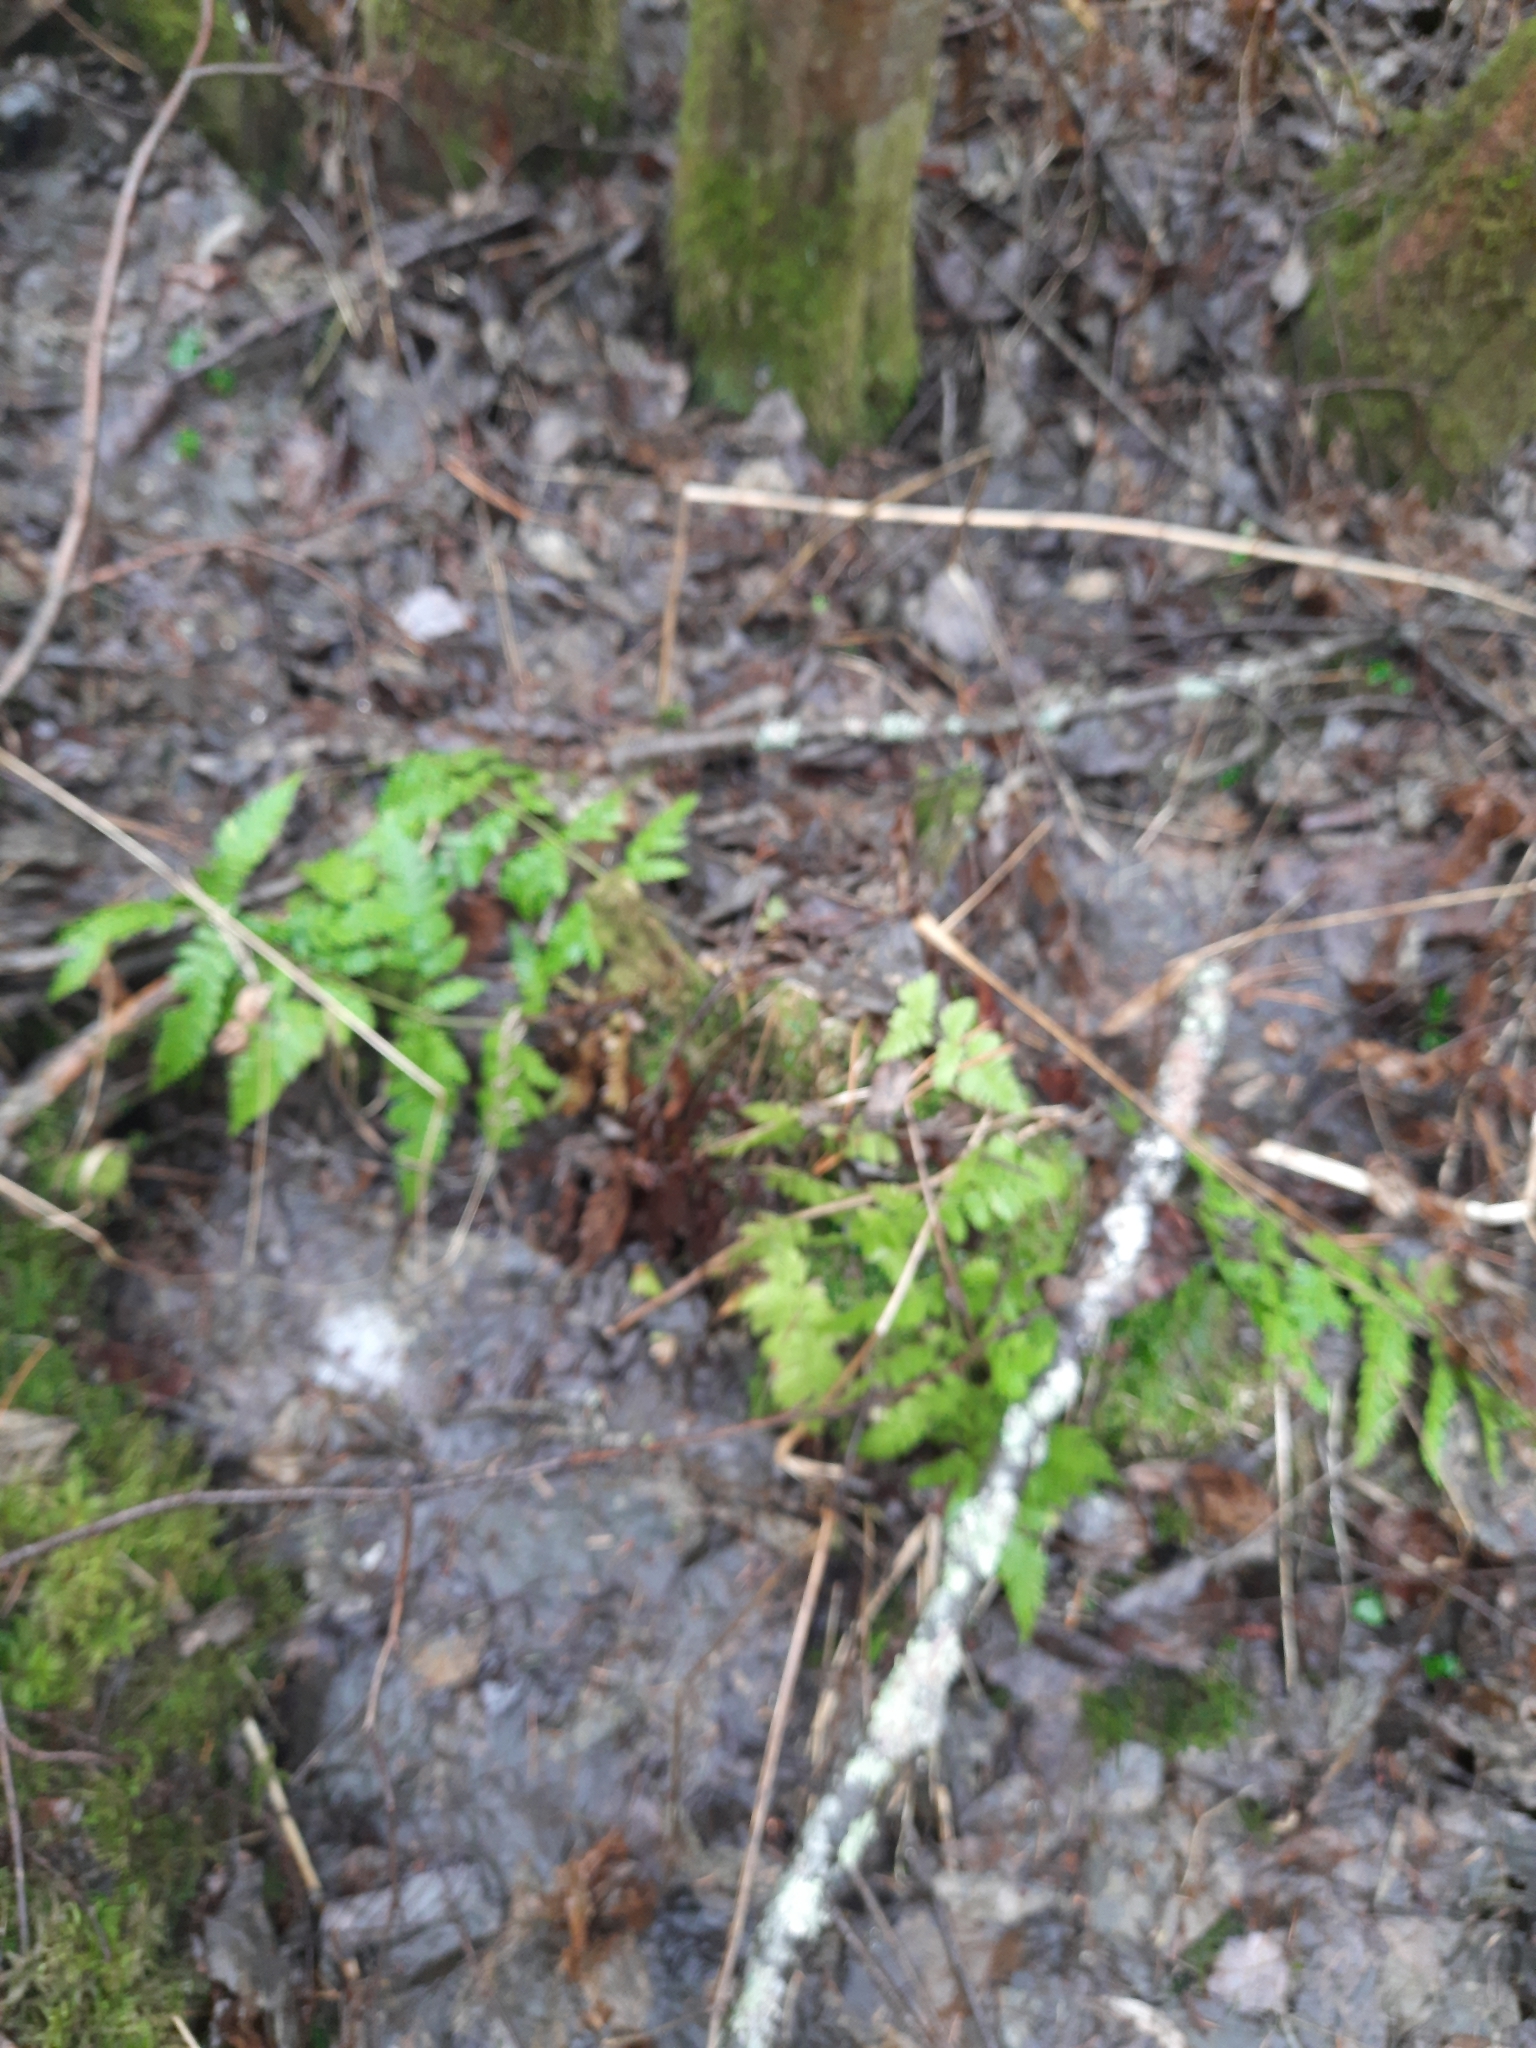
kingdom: Plantae
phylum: Tracheophyta
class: Polypodiopsida
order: Polypodiales
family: Dryopteridaceae
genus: Dryopteris
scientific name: Dryopteris carthusiana
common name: Narrow buckler-fern
